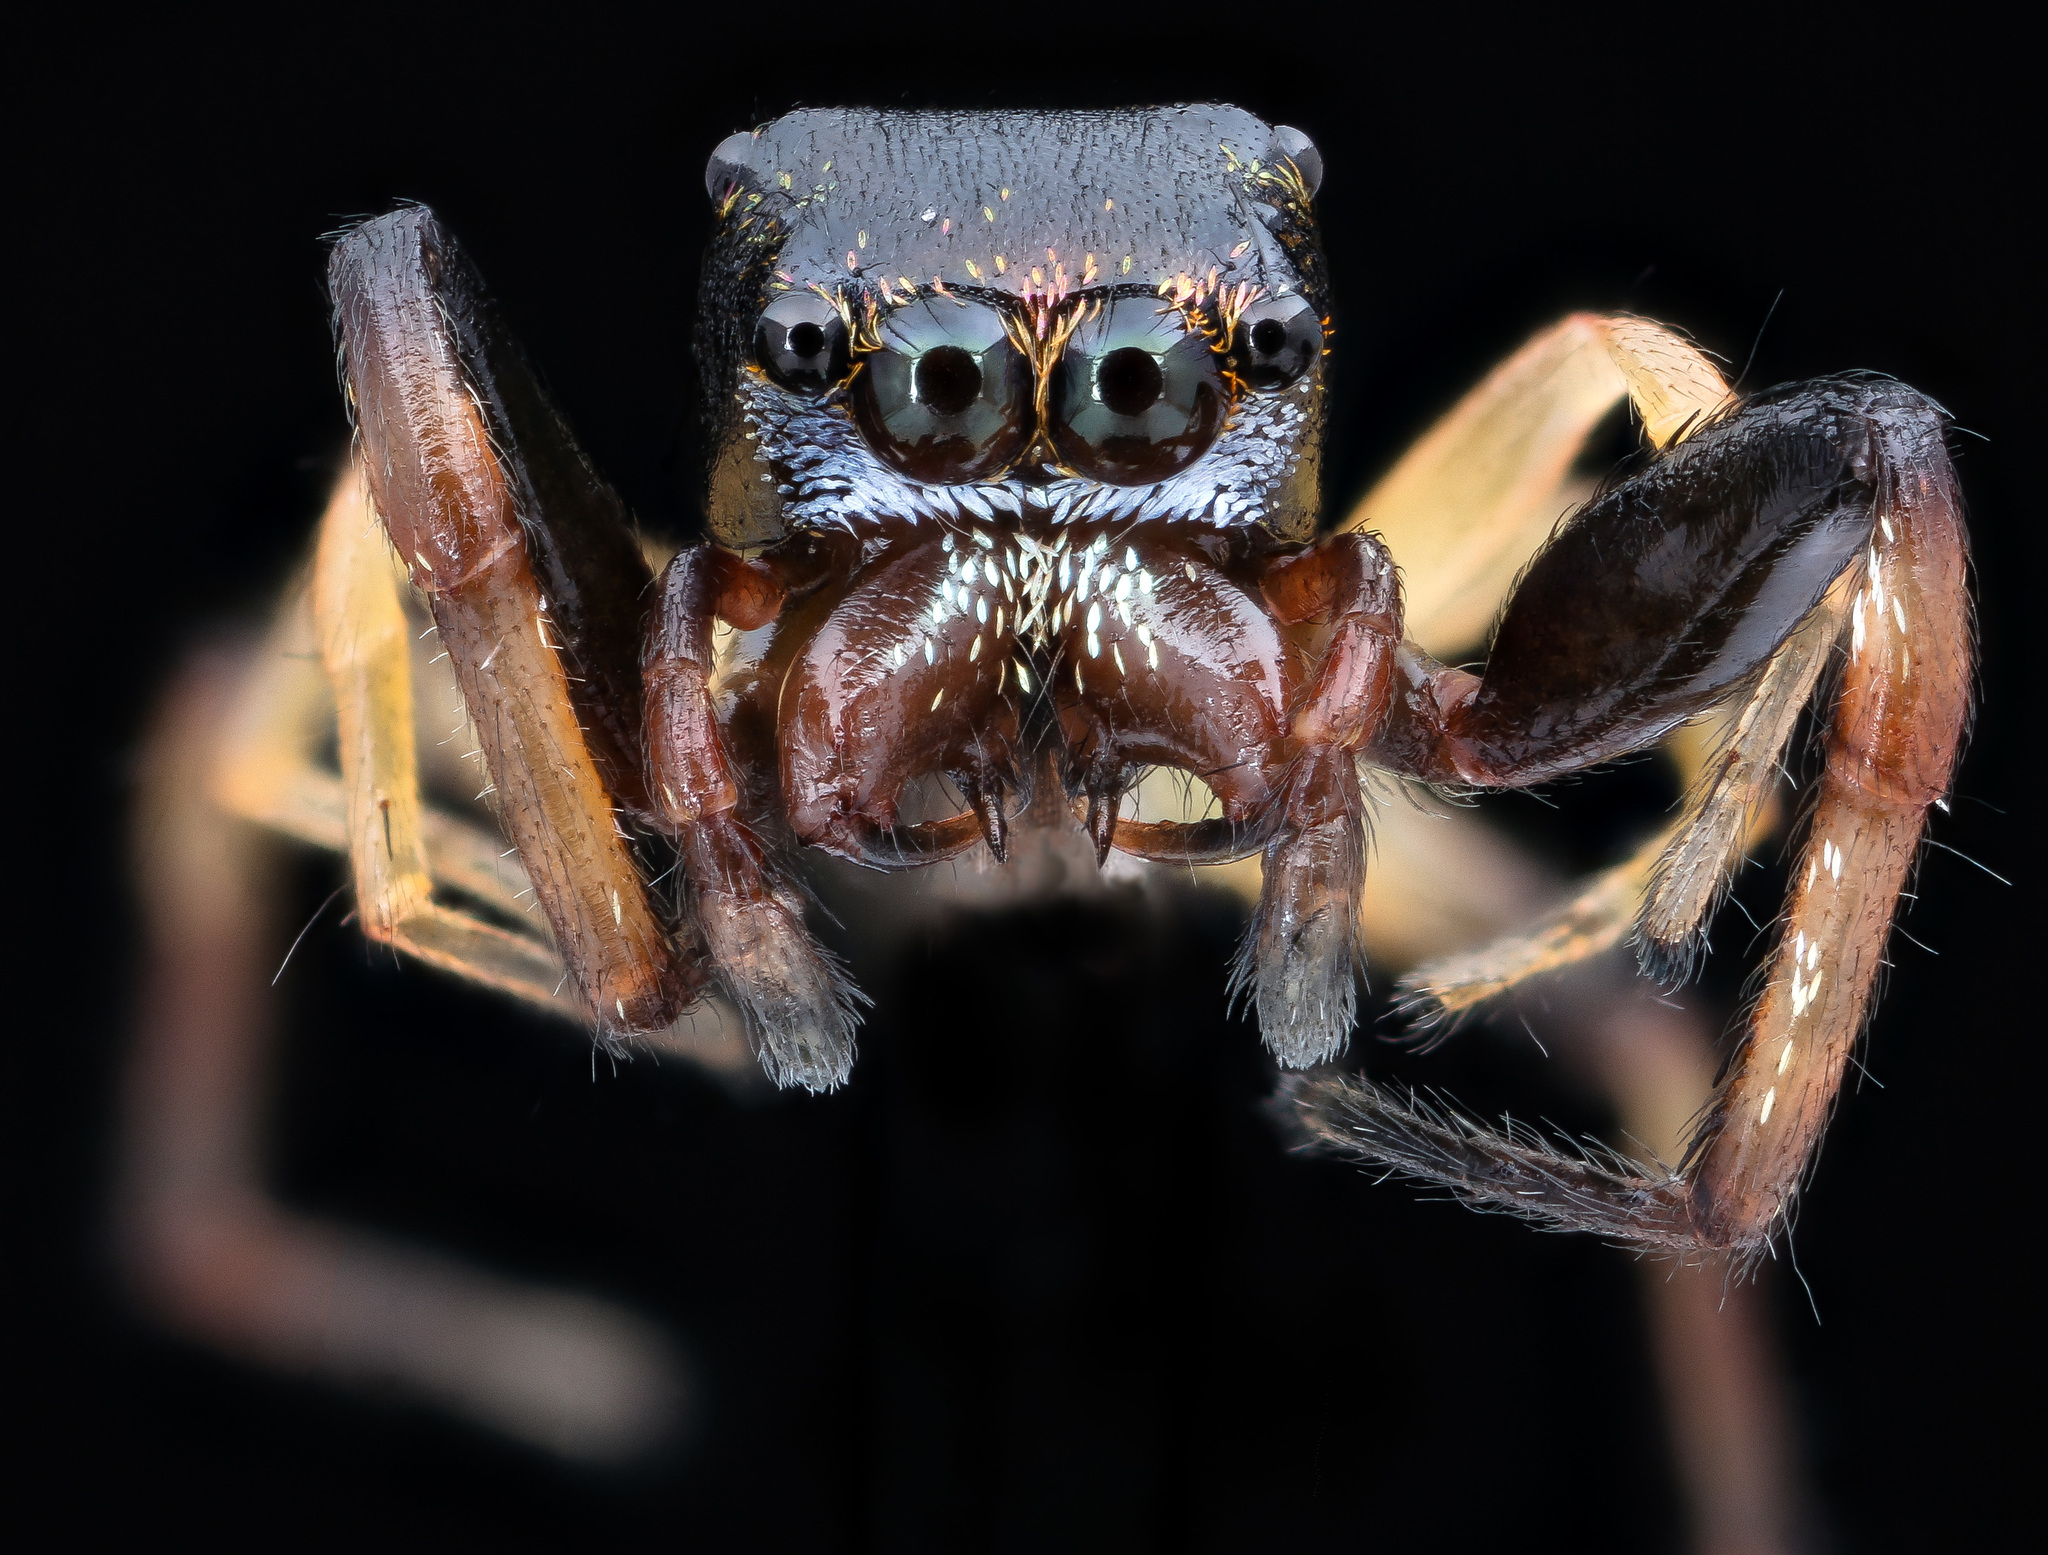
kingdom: Animalia
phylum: Arthropoda
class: Arachnida
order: Araneae
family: Salticidae
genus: Zygoballus
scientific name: Zygoballus rufipes
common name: Jumping spiders
